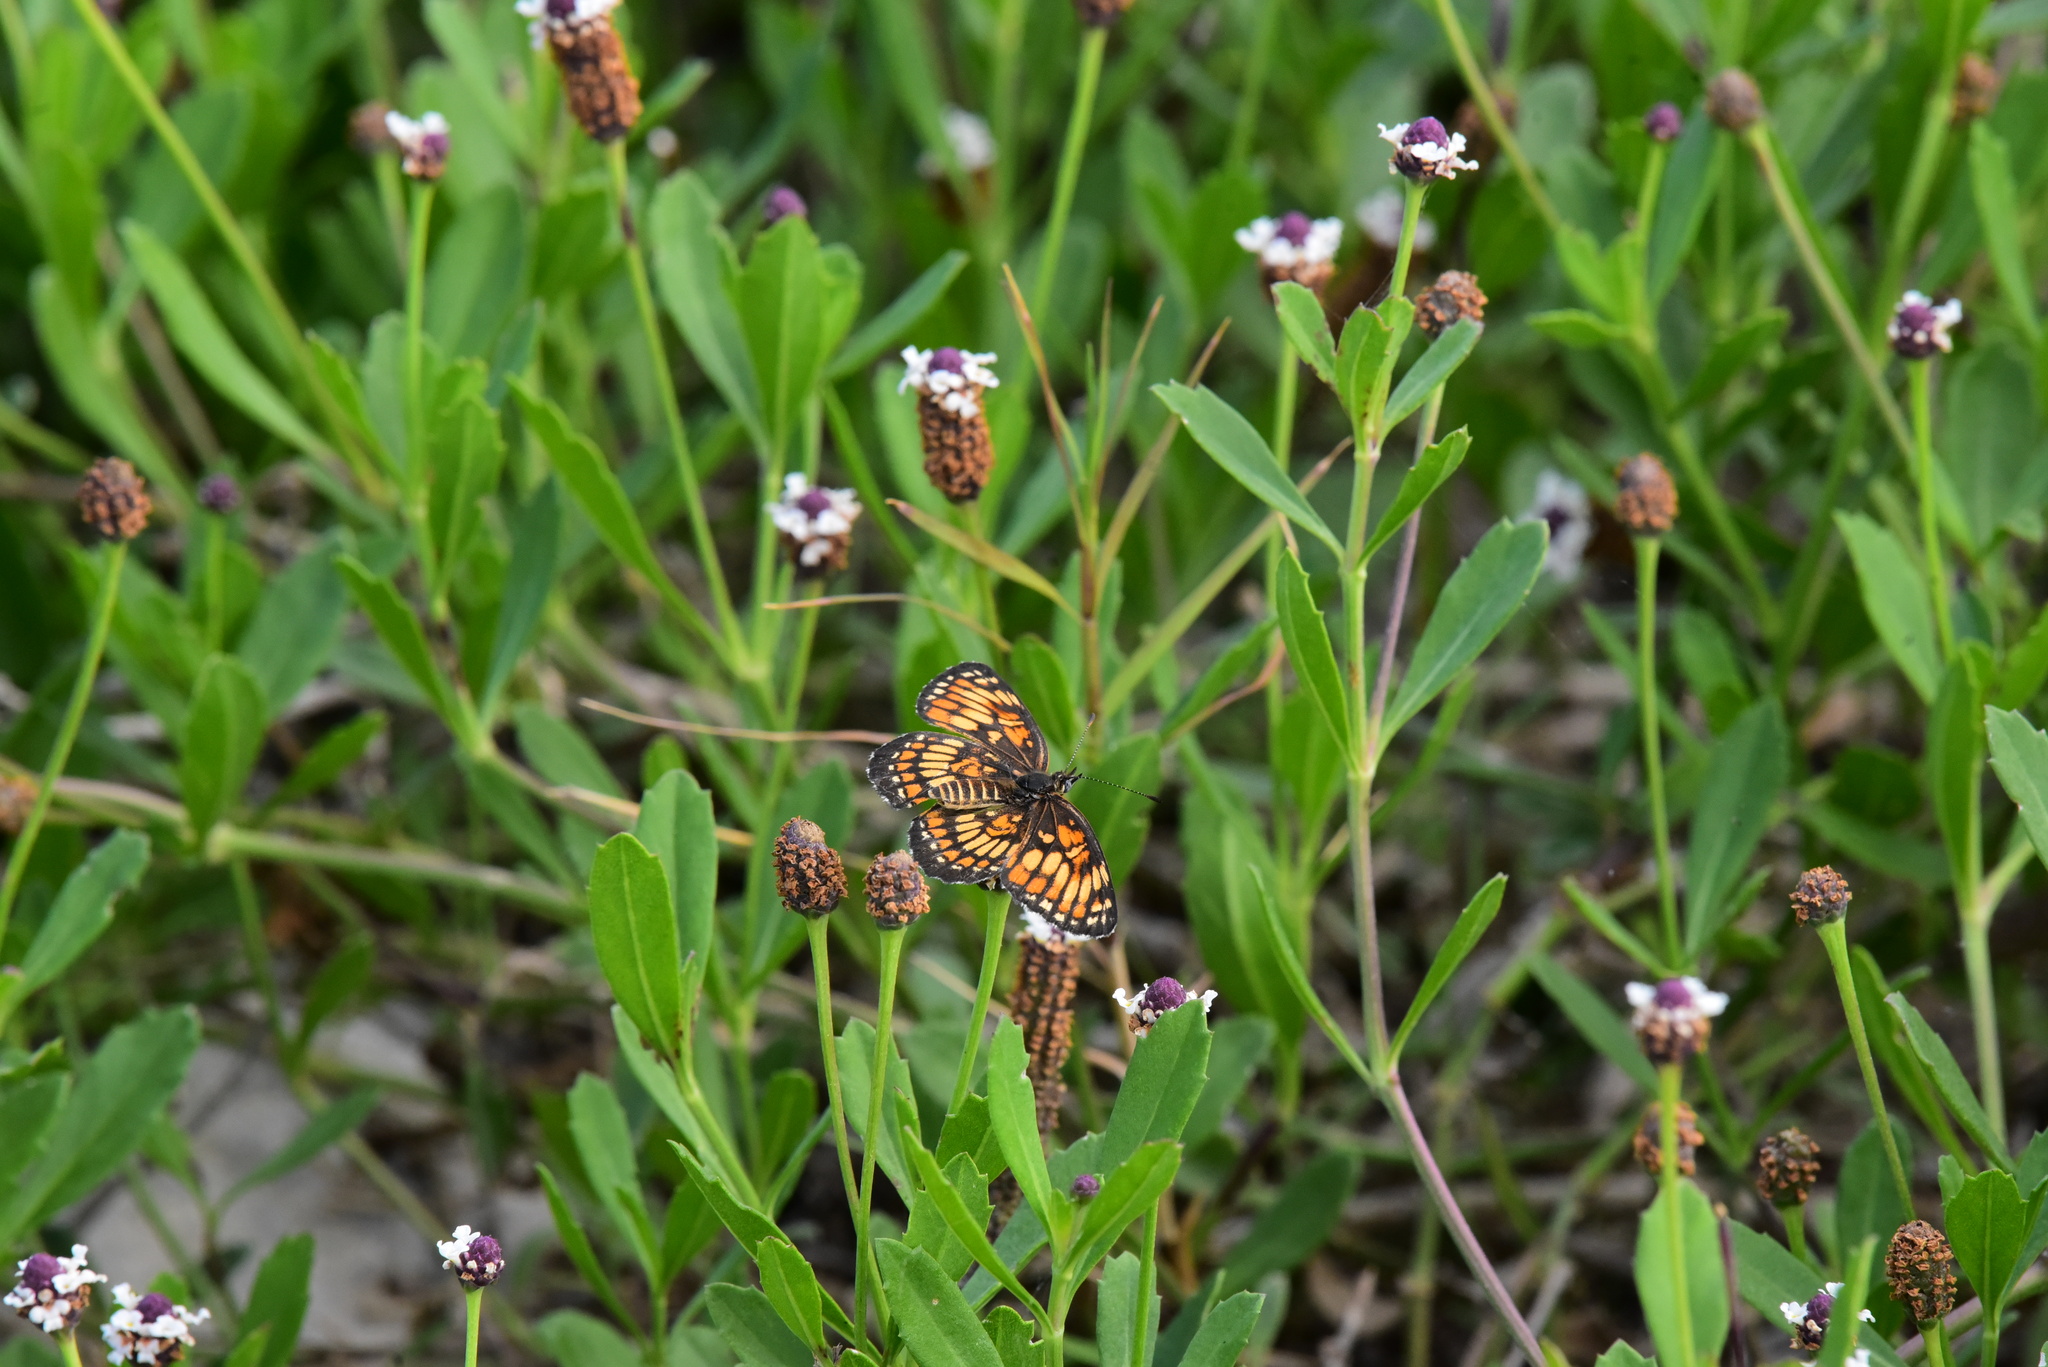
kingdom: Animalia
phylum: Arthropoda
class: Insecta
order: Lepidoptera
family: Nymphalidae
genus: Thessalia
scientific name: Thessalia theona
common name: Nymphalid moth
